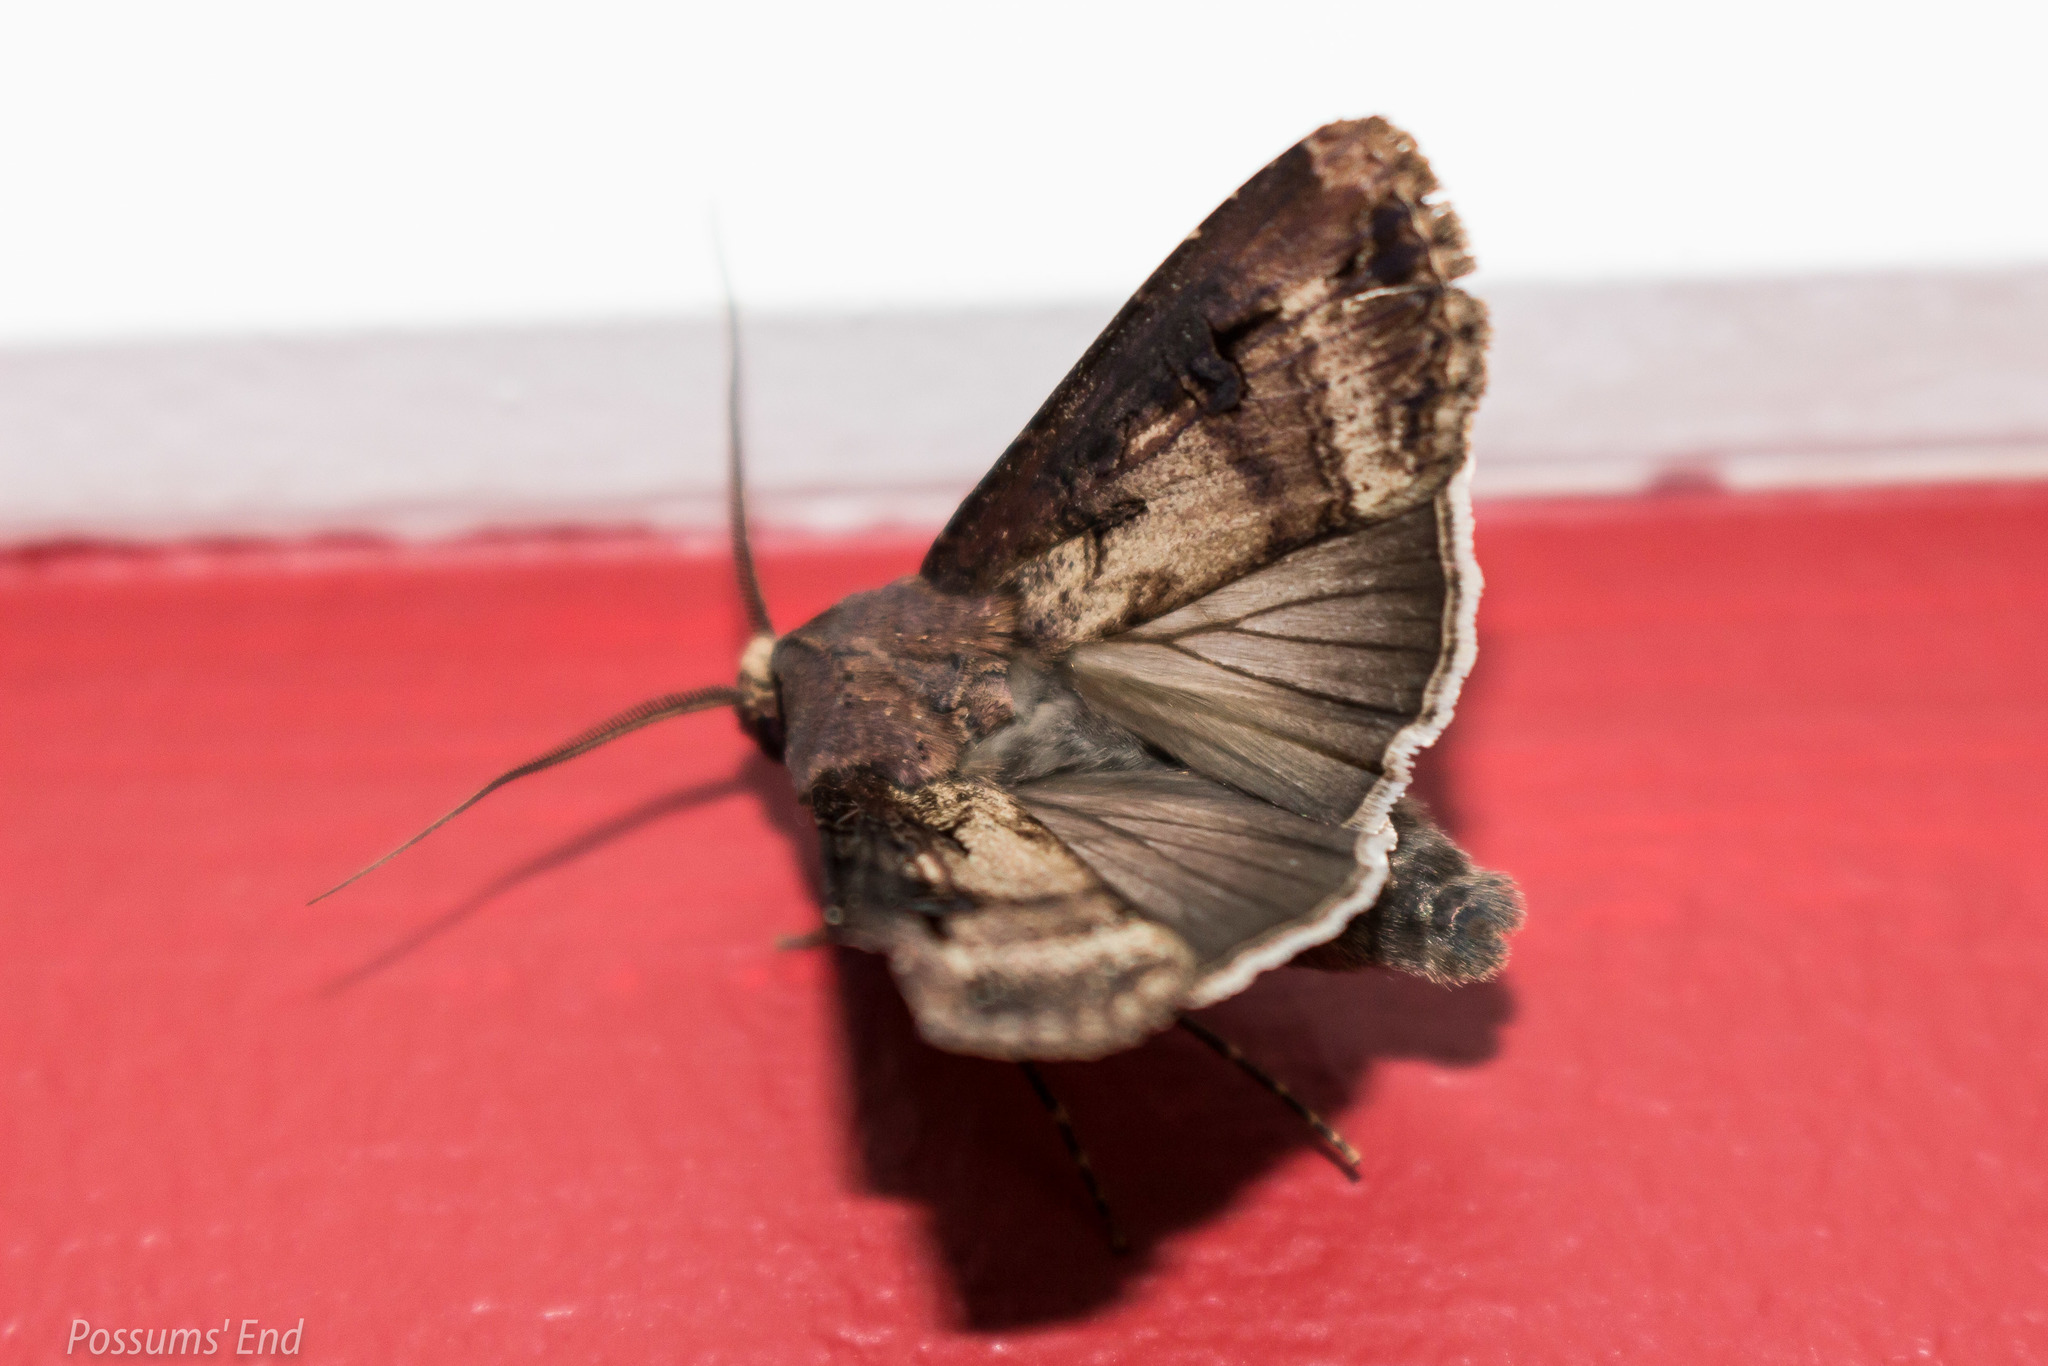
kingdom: Animalia
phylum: Arthropoda
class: Insecta
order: Lepidoptera
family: Noctuidae
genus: Agrotis
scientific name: Agrotis ipsilon
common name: Dark sword-grass
